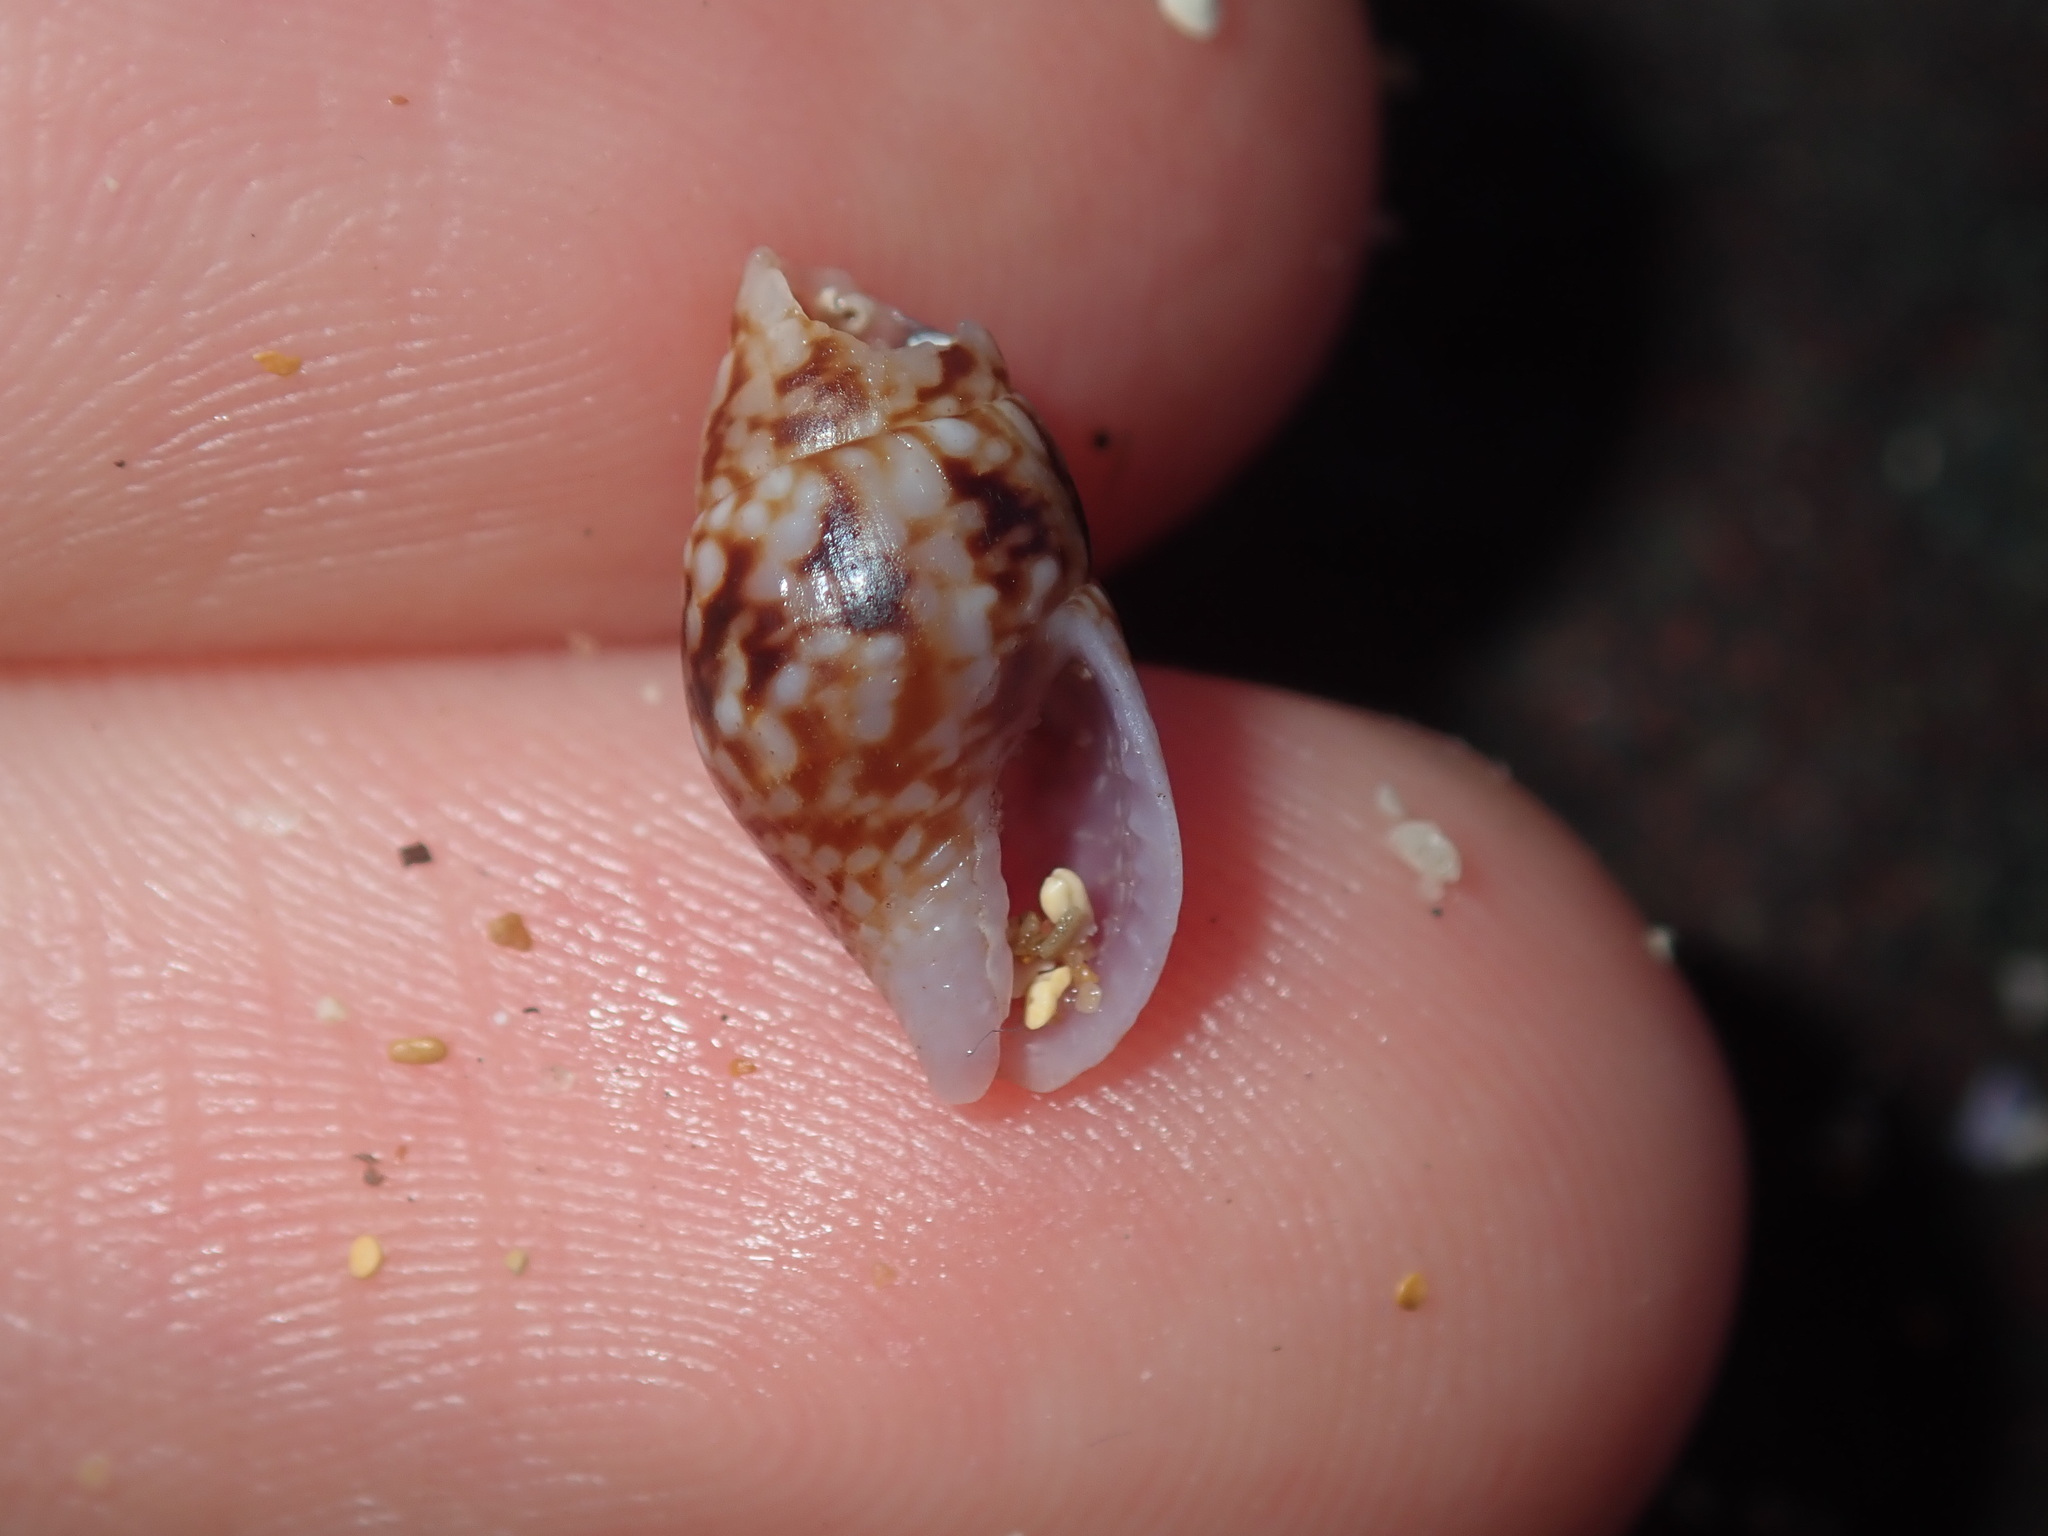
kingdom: Animalia
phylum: Mollusca
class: Gastropoda
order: Neogastropoda
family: Columbellidae
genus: Mitrella
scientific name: Mitrella semiconvexa
